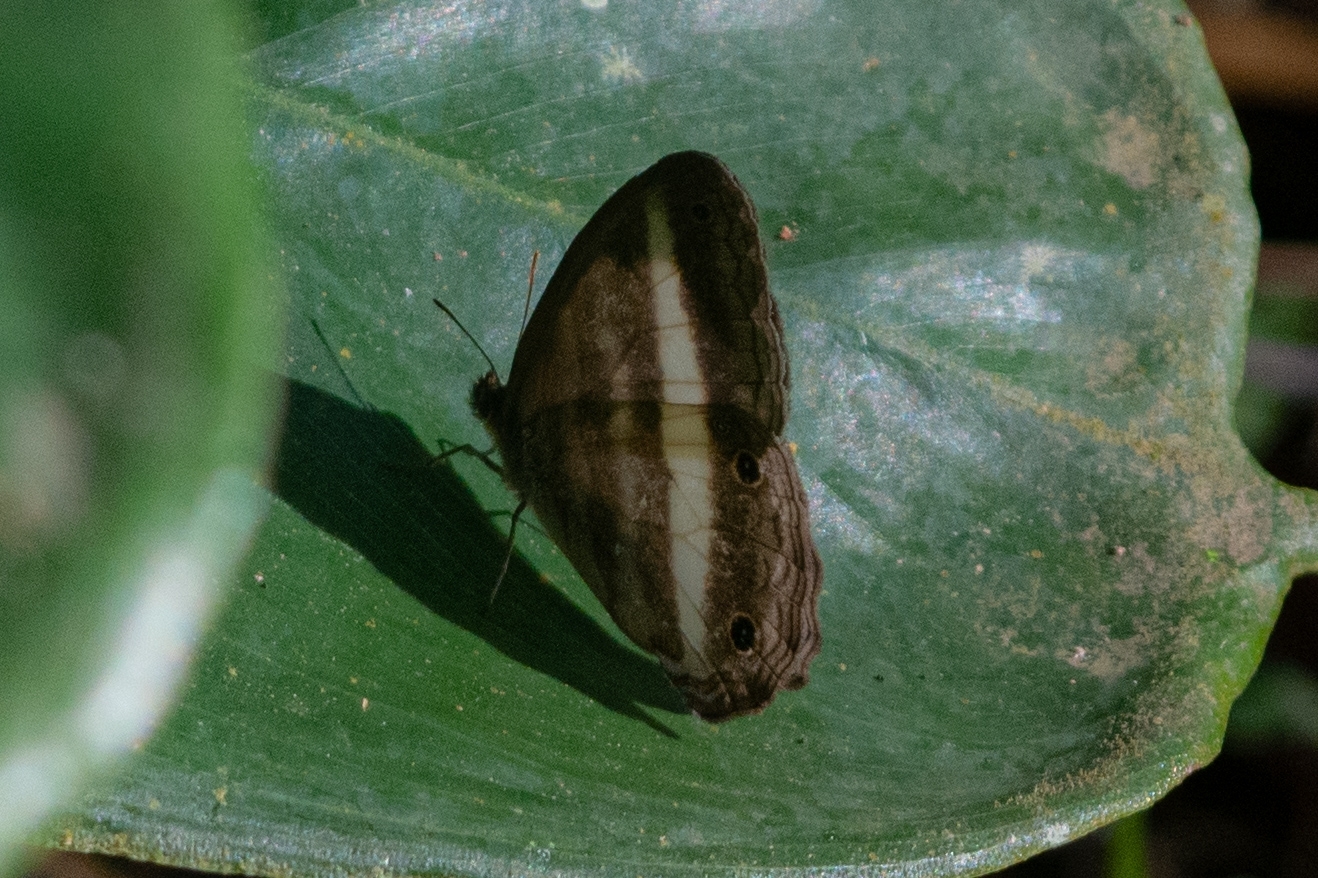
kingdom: Animalia
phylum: Arthropoda
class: Insecta
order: Lepidoptera
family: Nymphalidae
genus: Pareuptychia
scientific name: Pareuptychia summandosa
